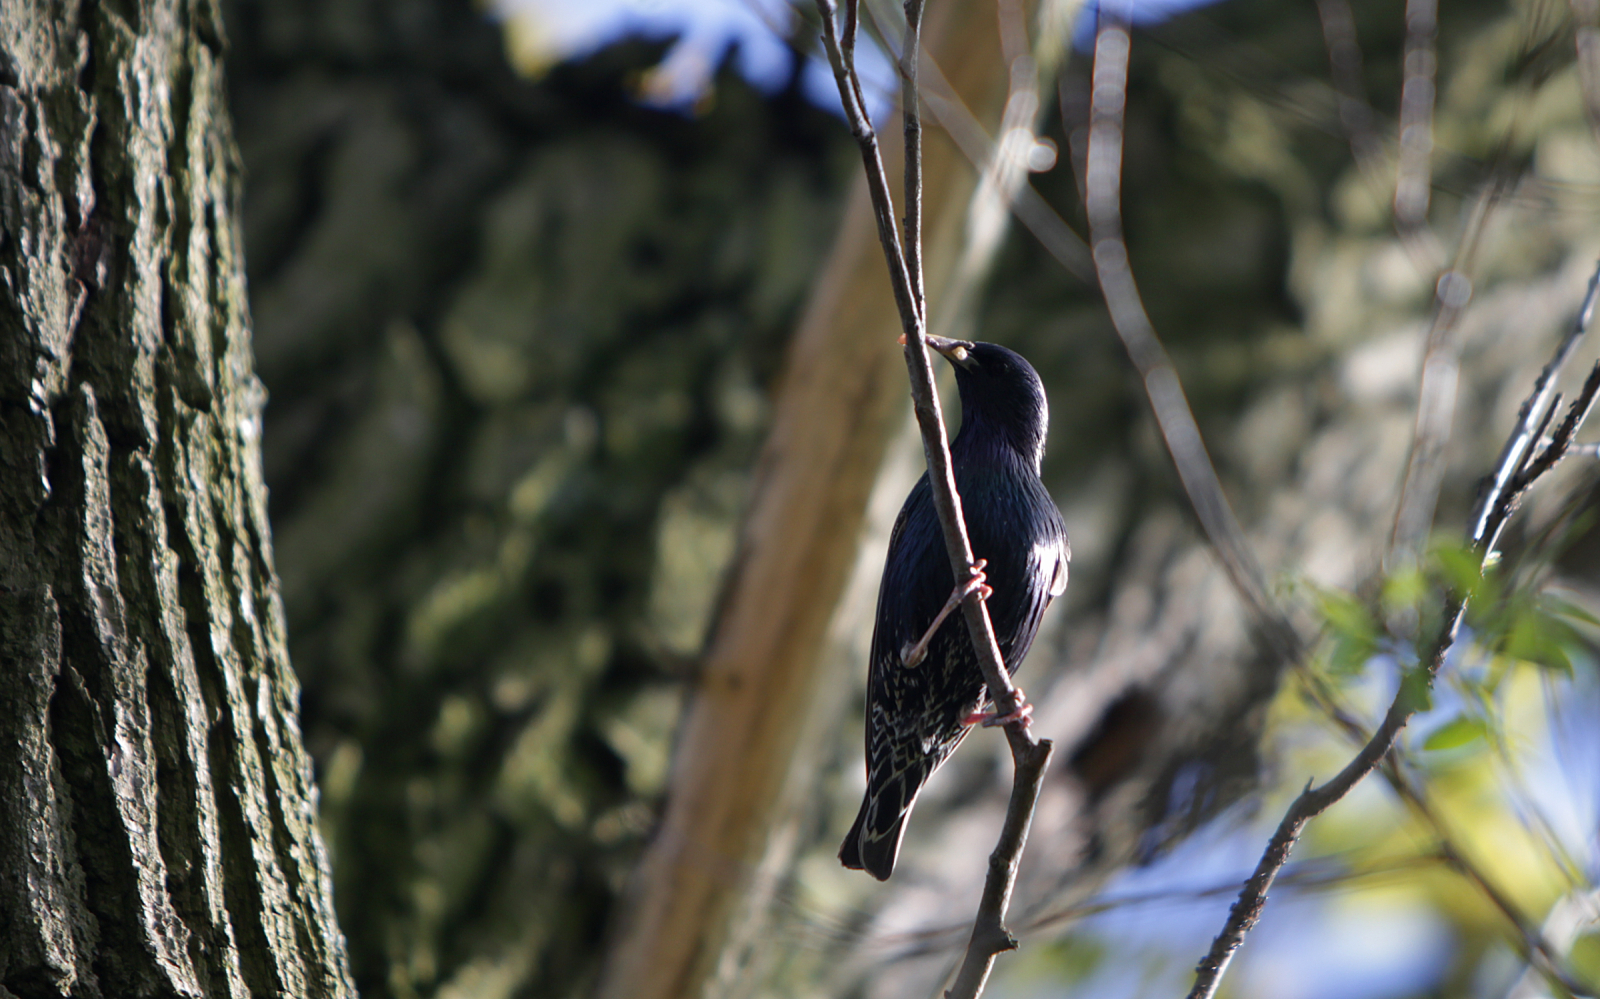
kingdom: Animalia
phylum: Chordata
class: Aves
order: Passeriformes
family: Sturnidae
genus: Sturnus
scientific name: Sturnus vulgaris
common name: Common starling
